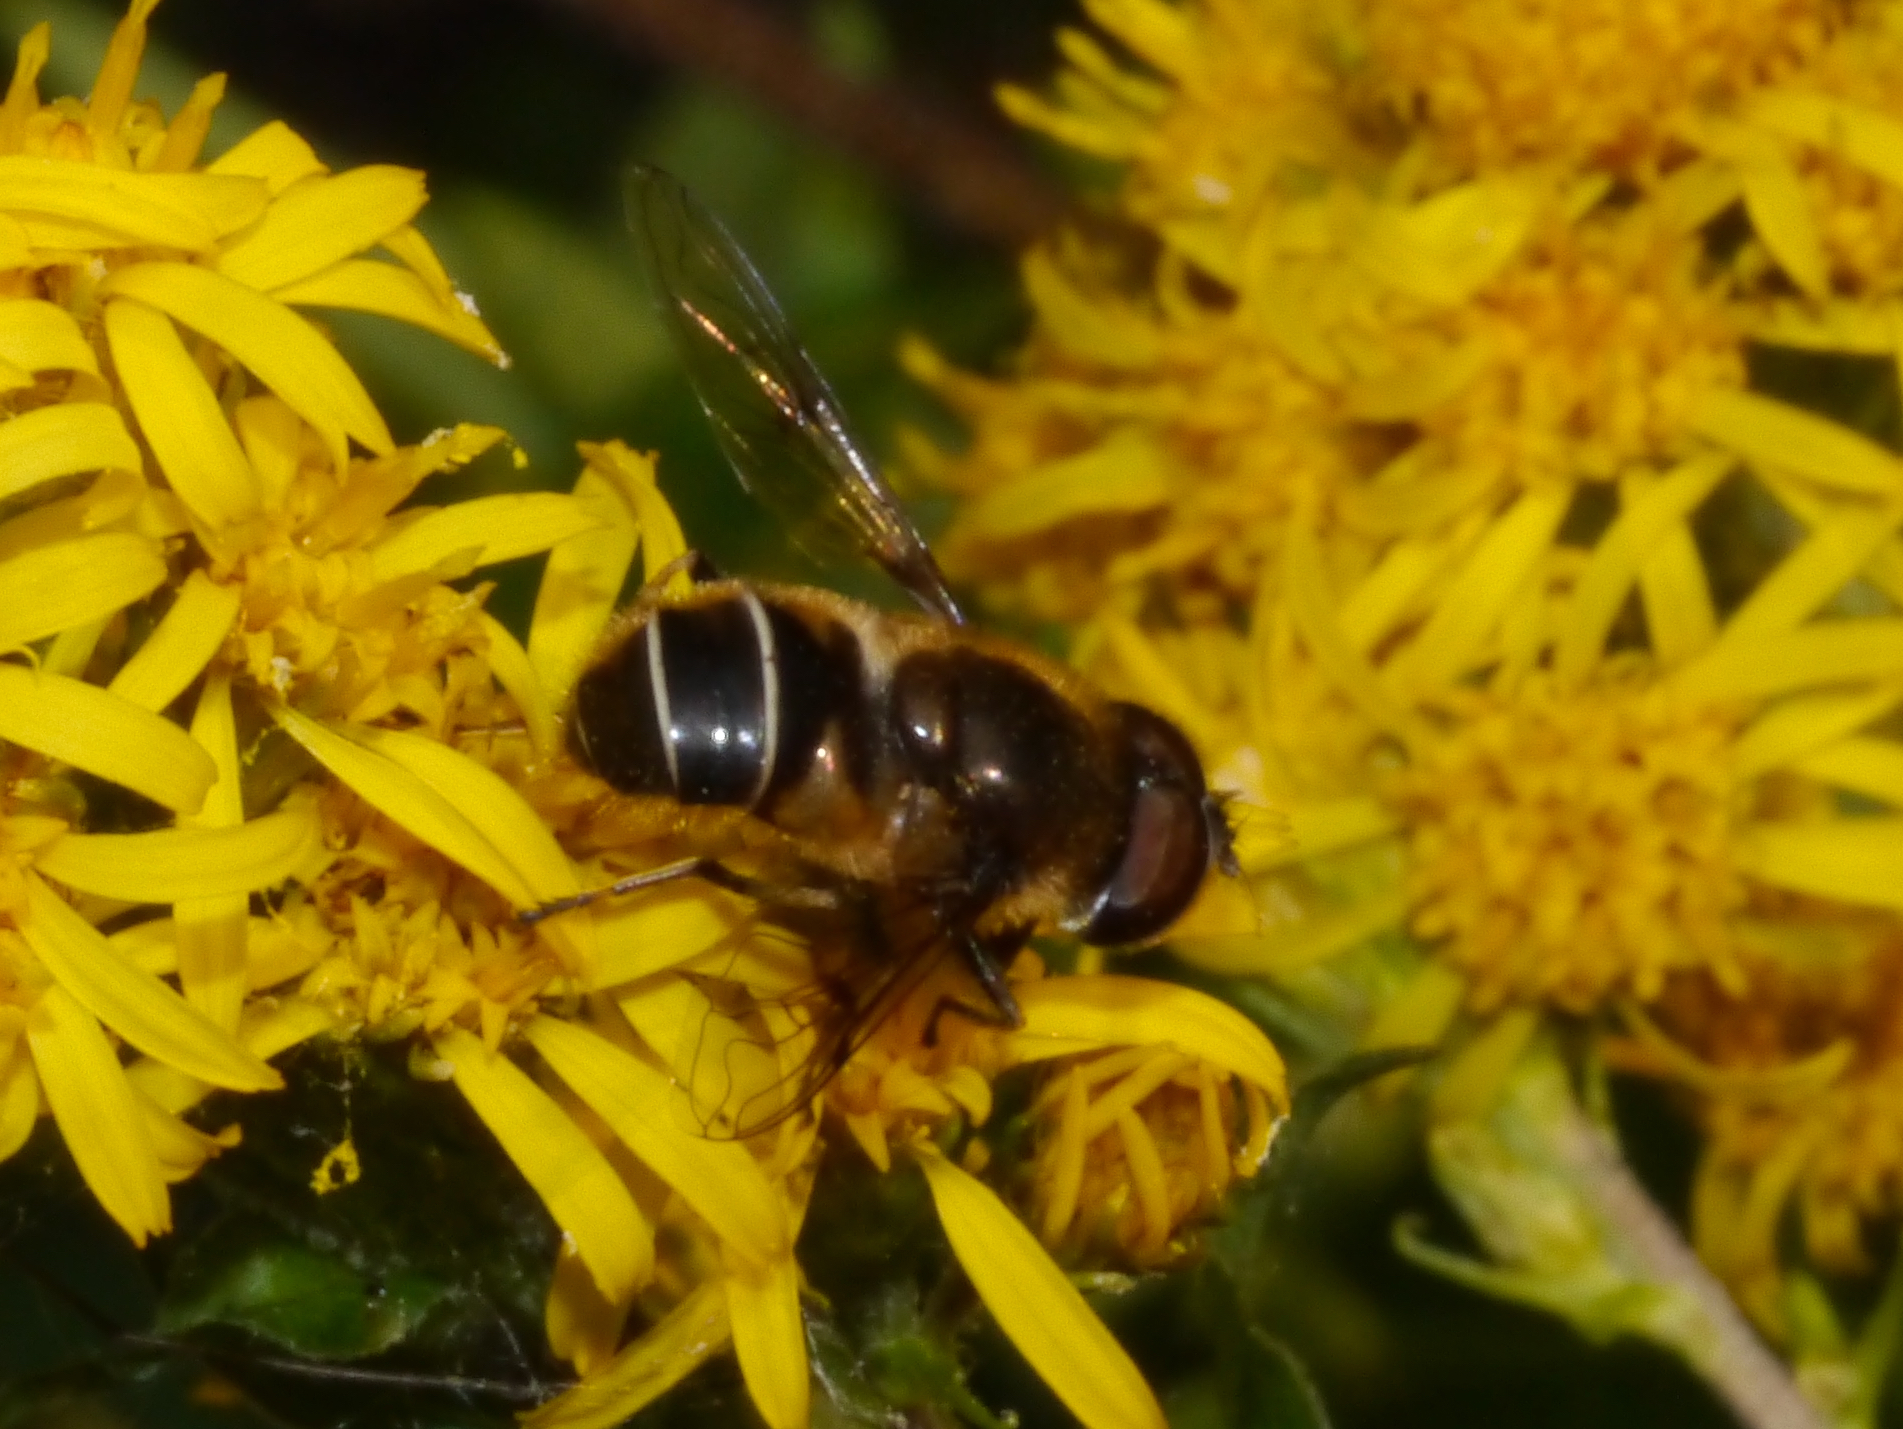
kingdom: Animalia
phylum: Arthropoda
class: Insecta
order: Diptera
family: Syrphidae
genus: Eristalis
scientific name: Eristalis obscura
